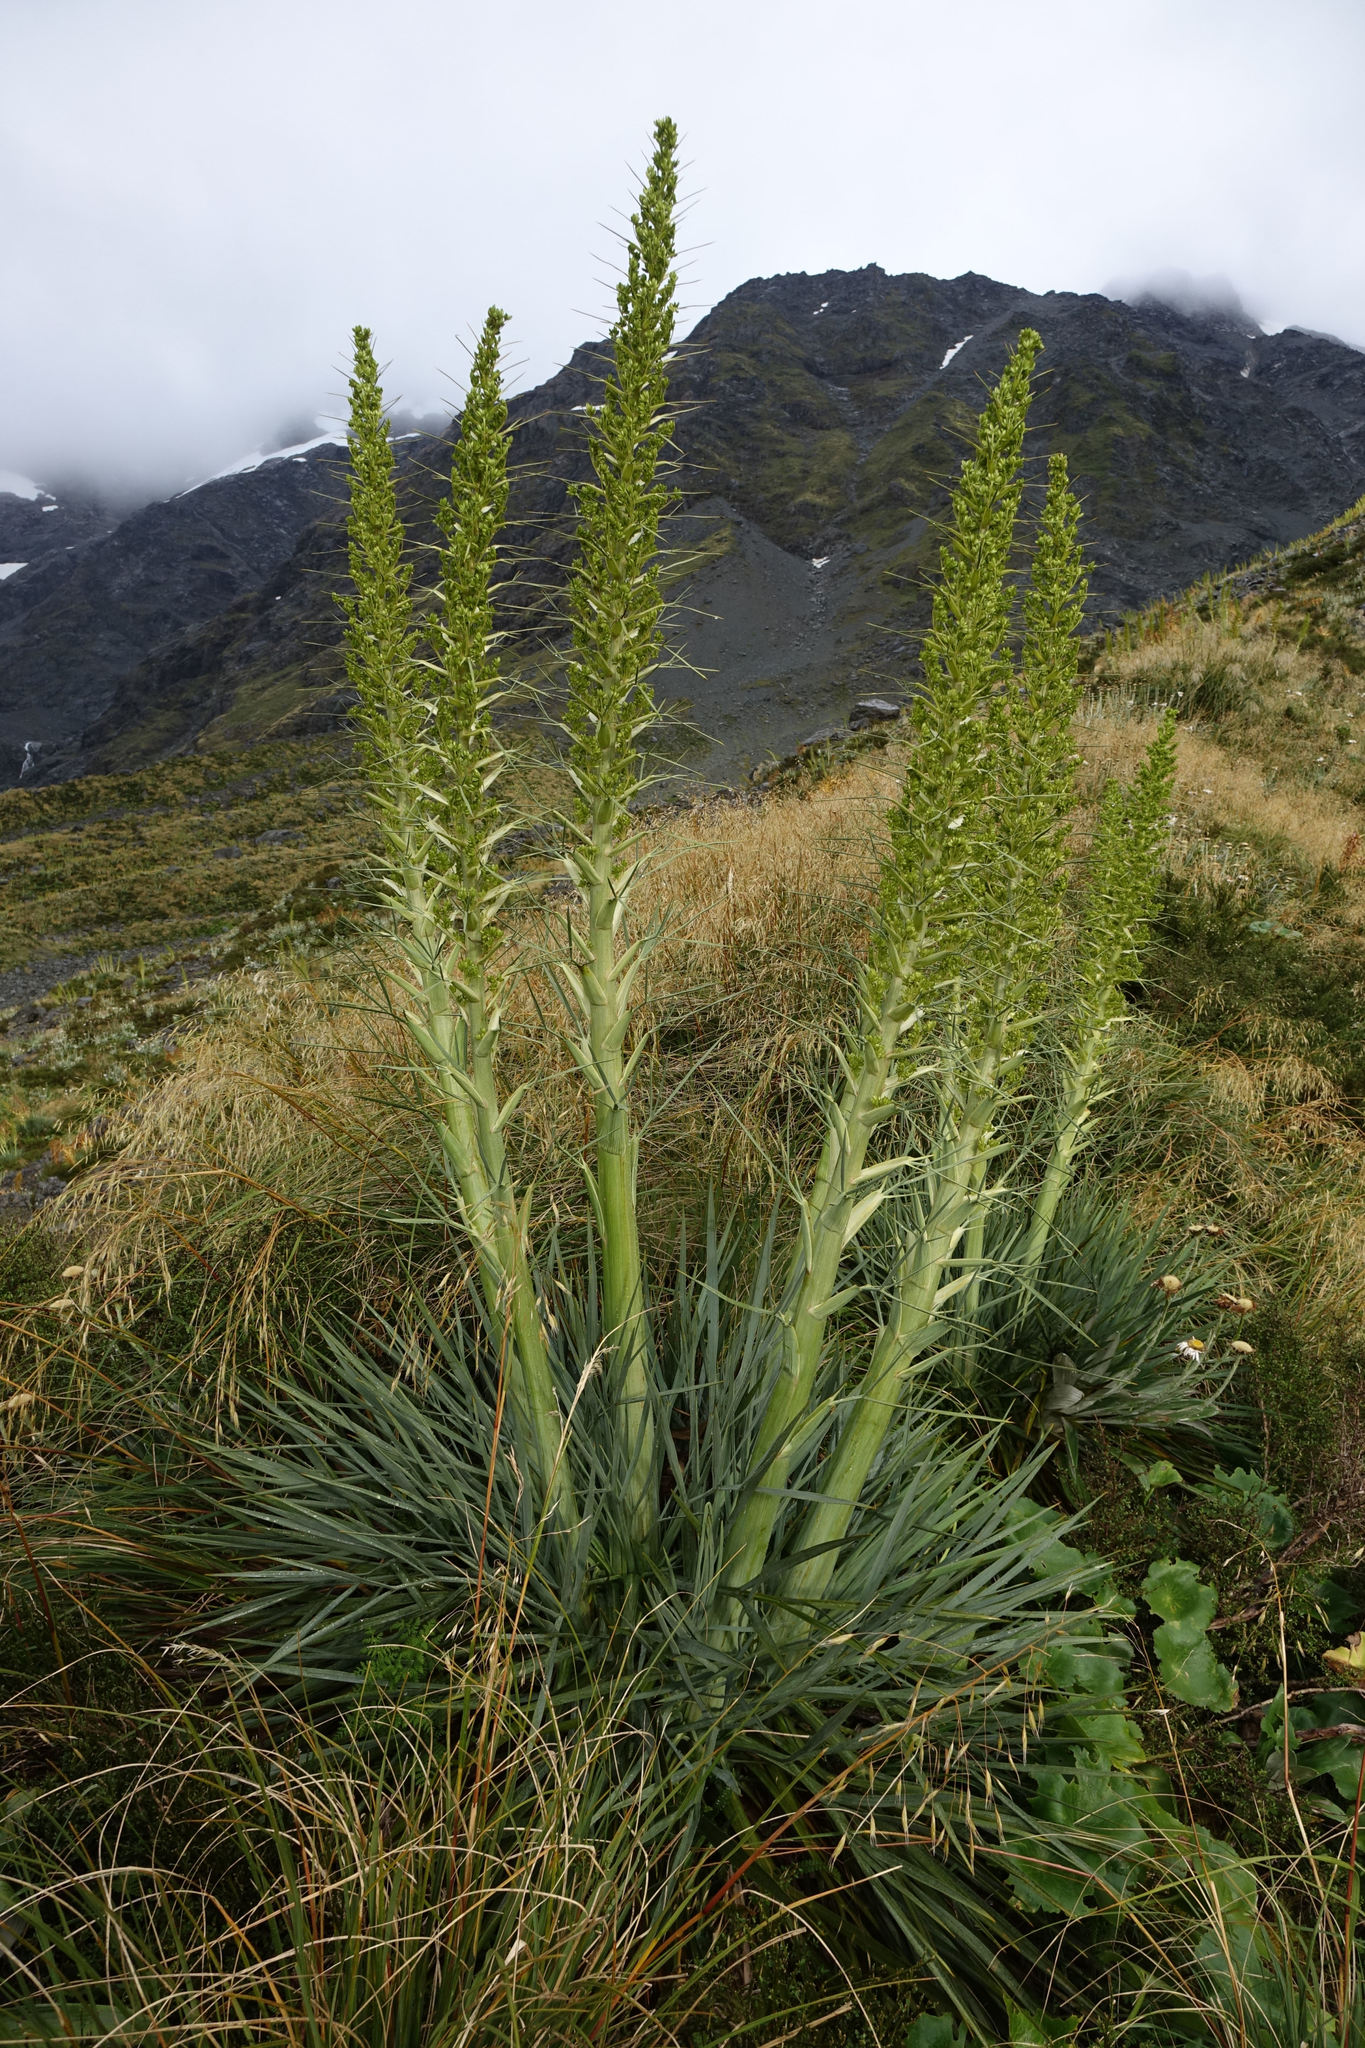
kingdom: Plantae
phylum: Tracheophyta
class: Magnoliopsida
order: Apiales
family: Apiaceae
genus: Aciphylla
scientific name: Aciphylla scott-thomsonii
